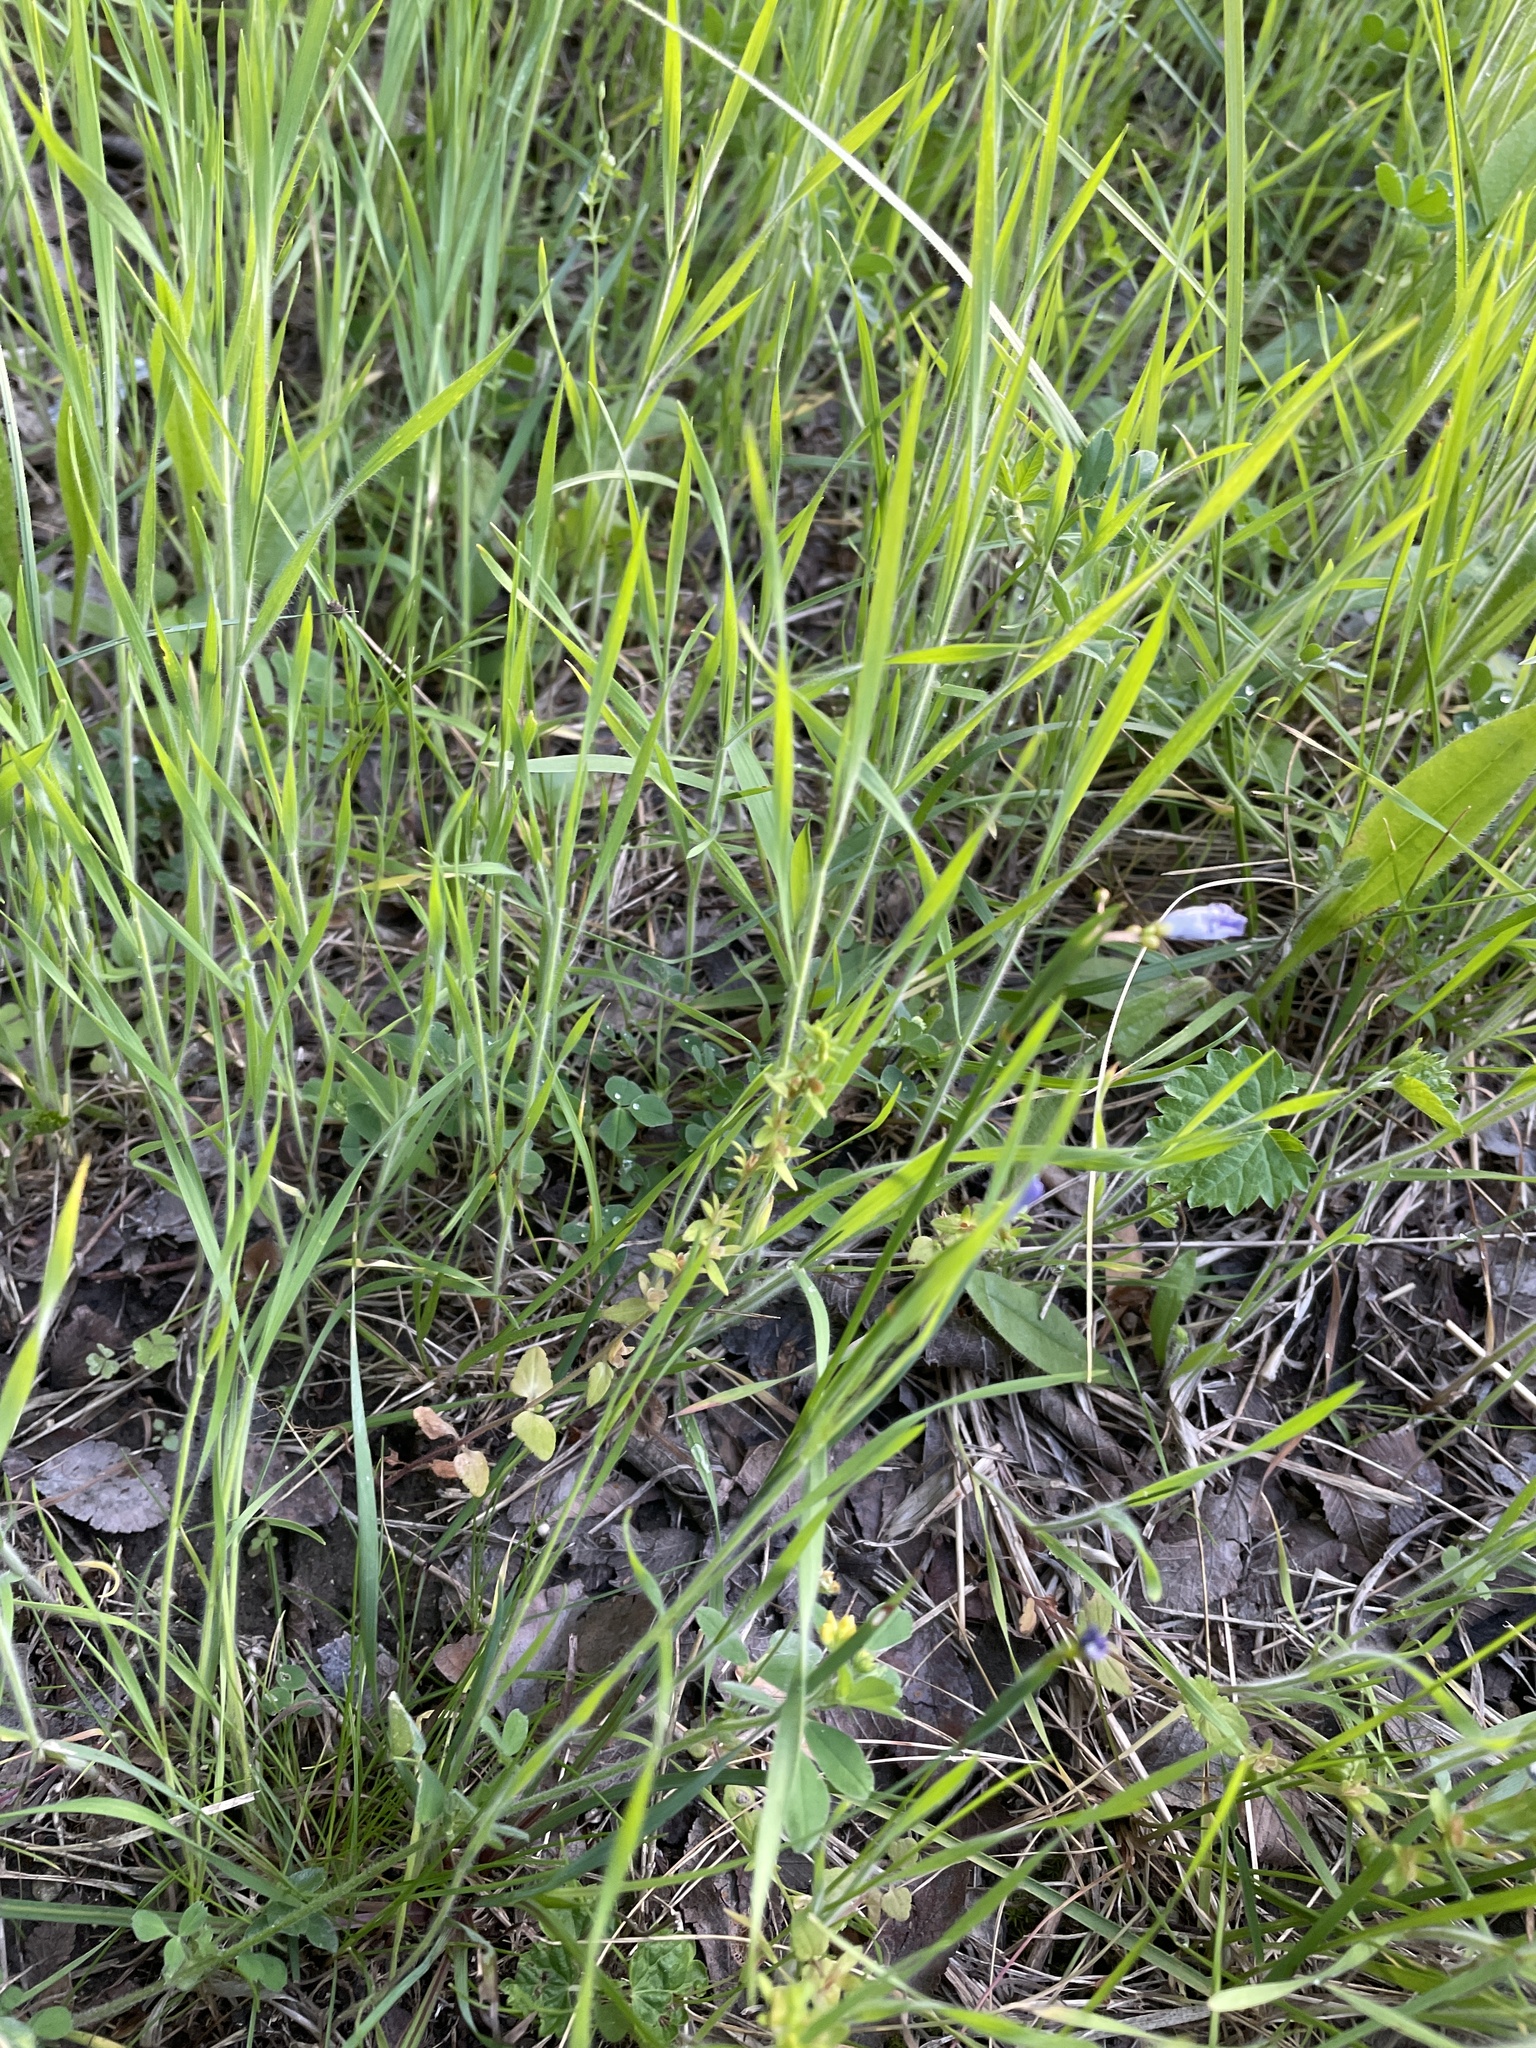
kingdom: Plantae
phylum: Tracheophyta
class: Magnoliopsida
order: Lamiales
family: Plantaginaceae
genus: Veronica
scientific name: Veronica arvensis
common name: Corn speedwell
